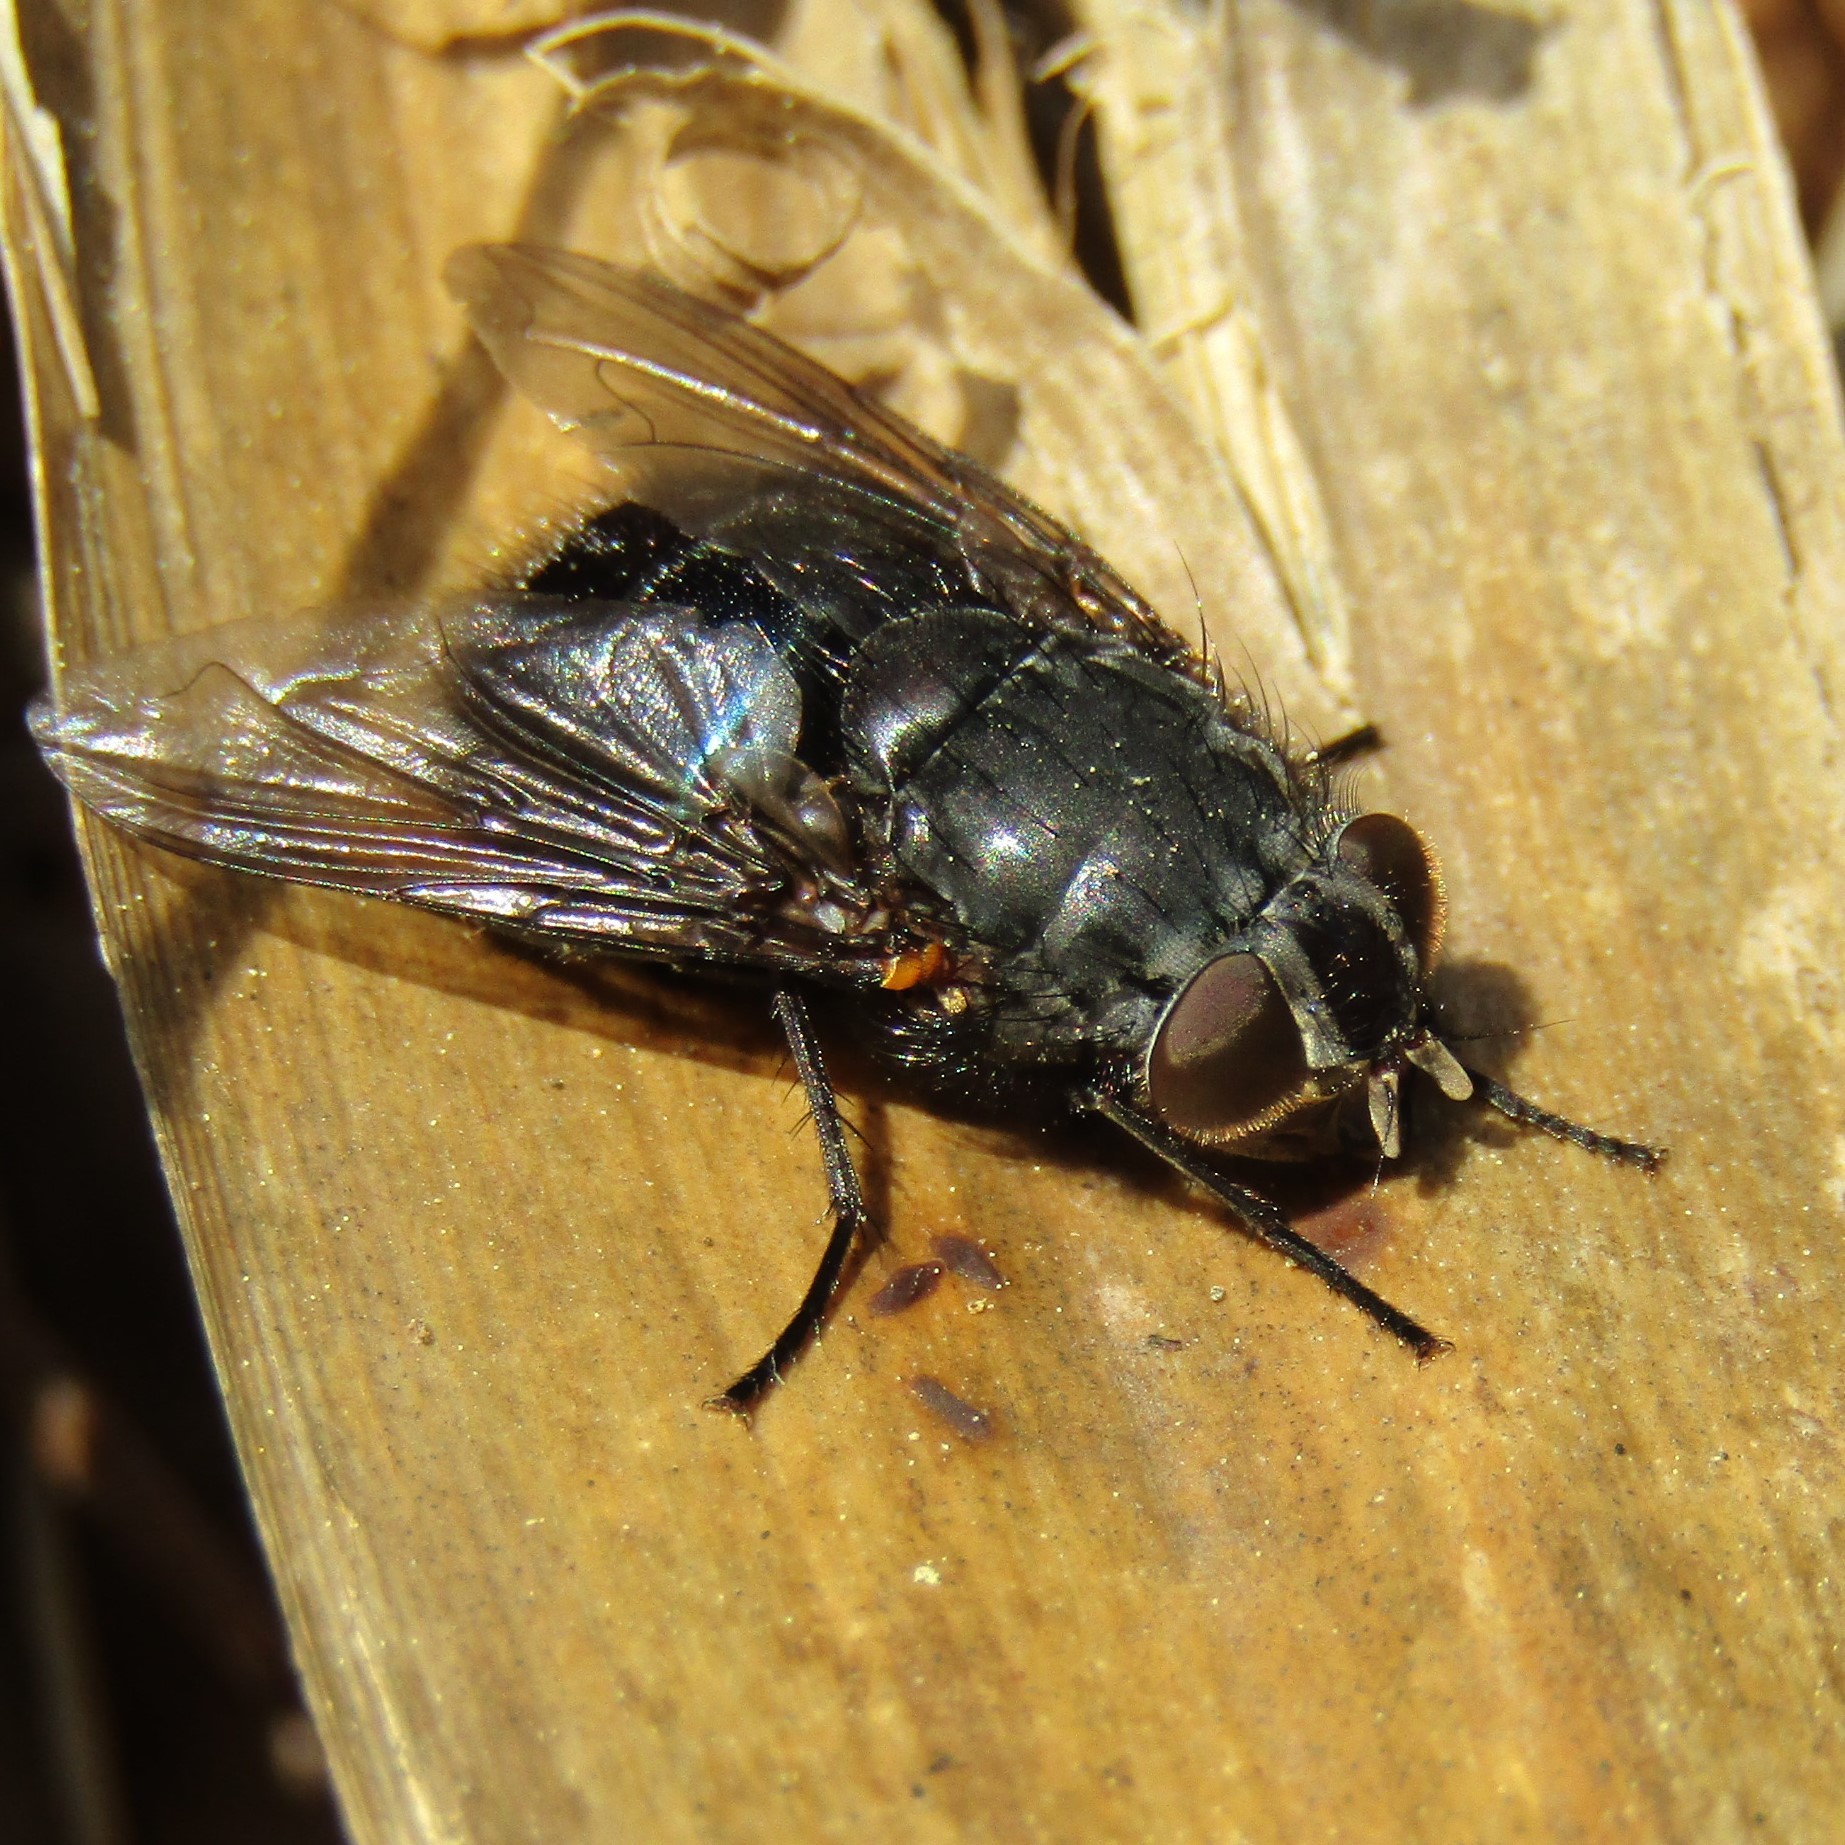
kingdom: Animalia
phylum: Arthropoda
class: Insecta
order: Diptera
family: Calliphoridae
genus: Calliphora
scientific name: Calliphora quadrimaculata
